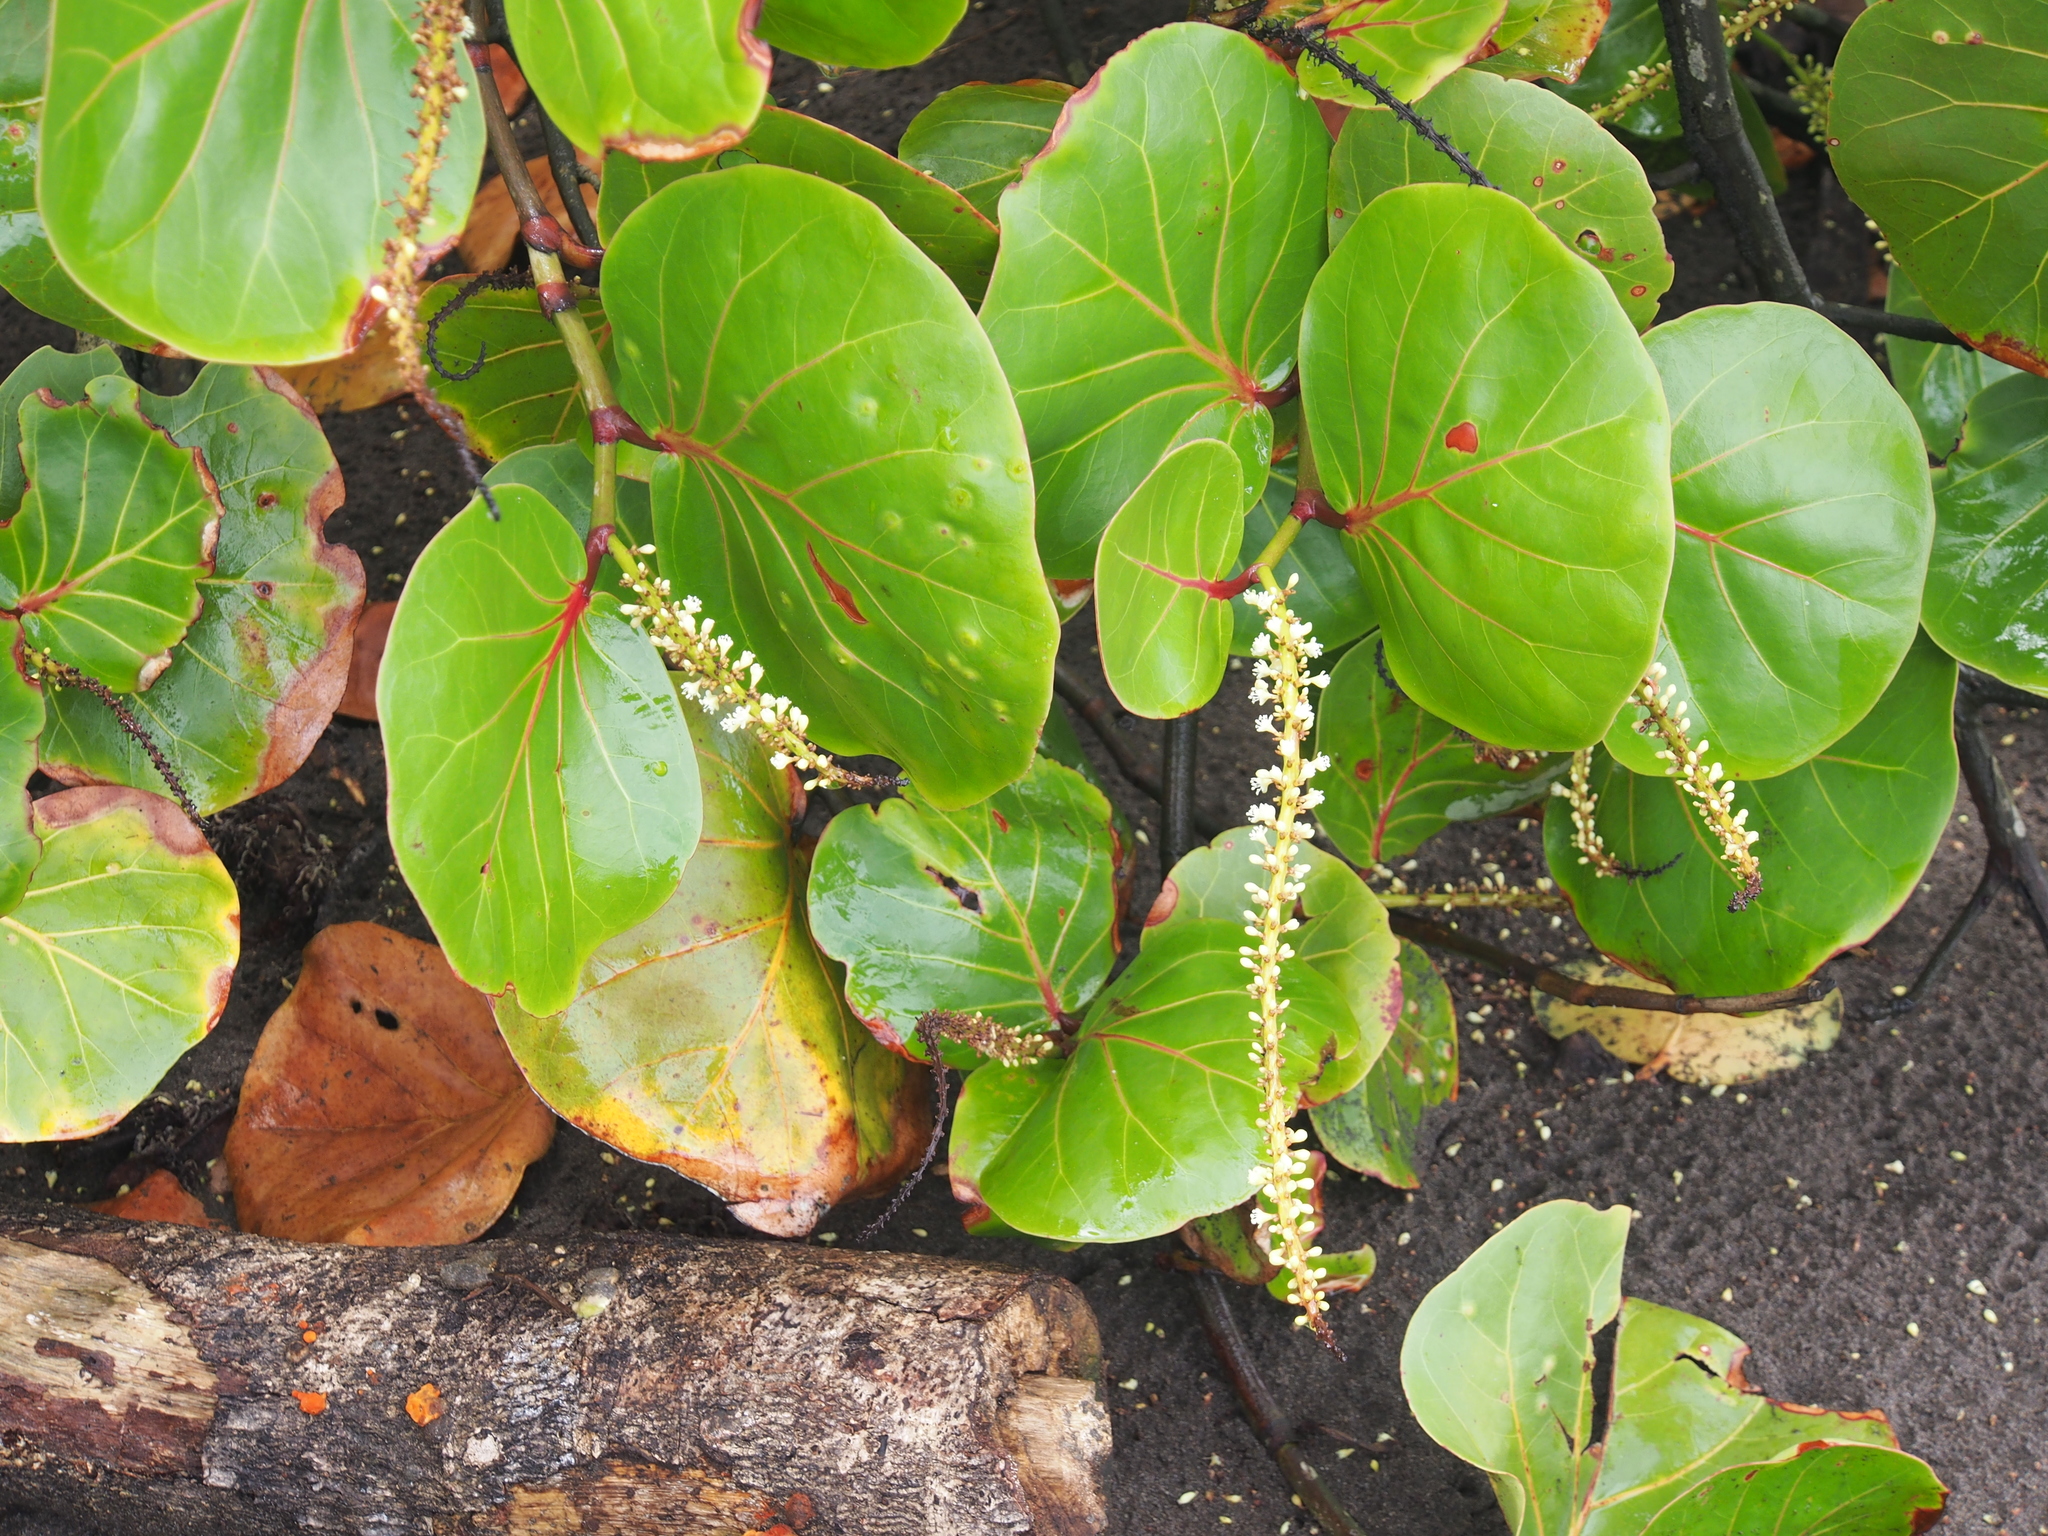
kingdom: Plantae
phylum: Tracheophyta
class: Magnoliopsida
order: Caryophyllales
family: Polygonaceae
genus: Coccoloba
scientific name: Coccoloba uvifera
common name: Seagrape
